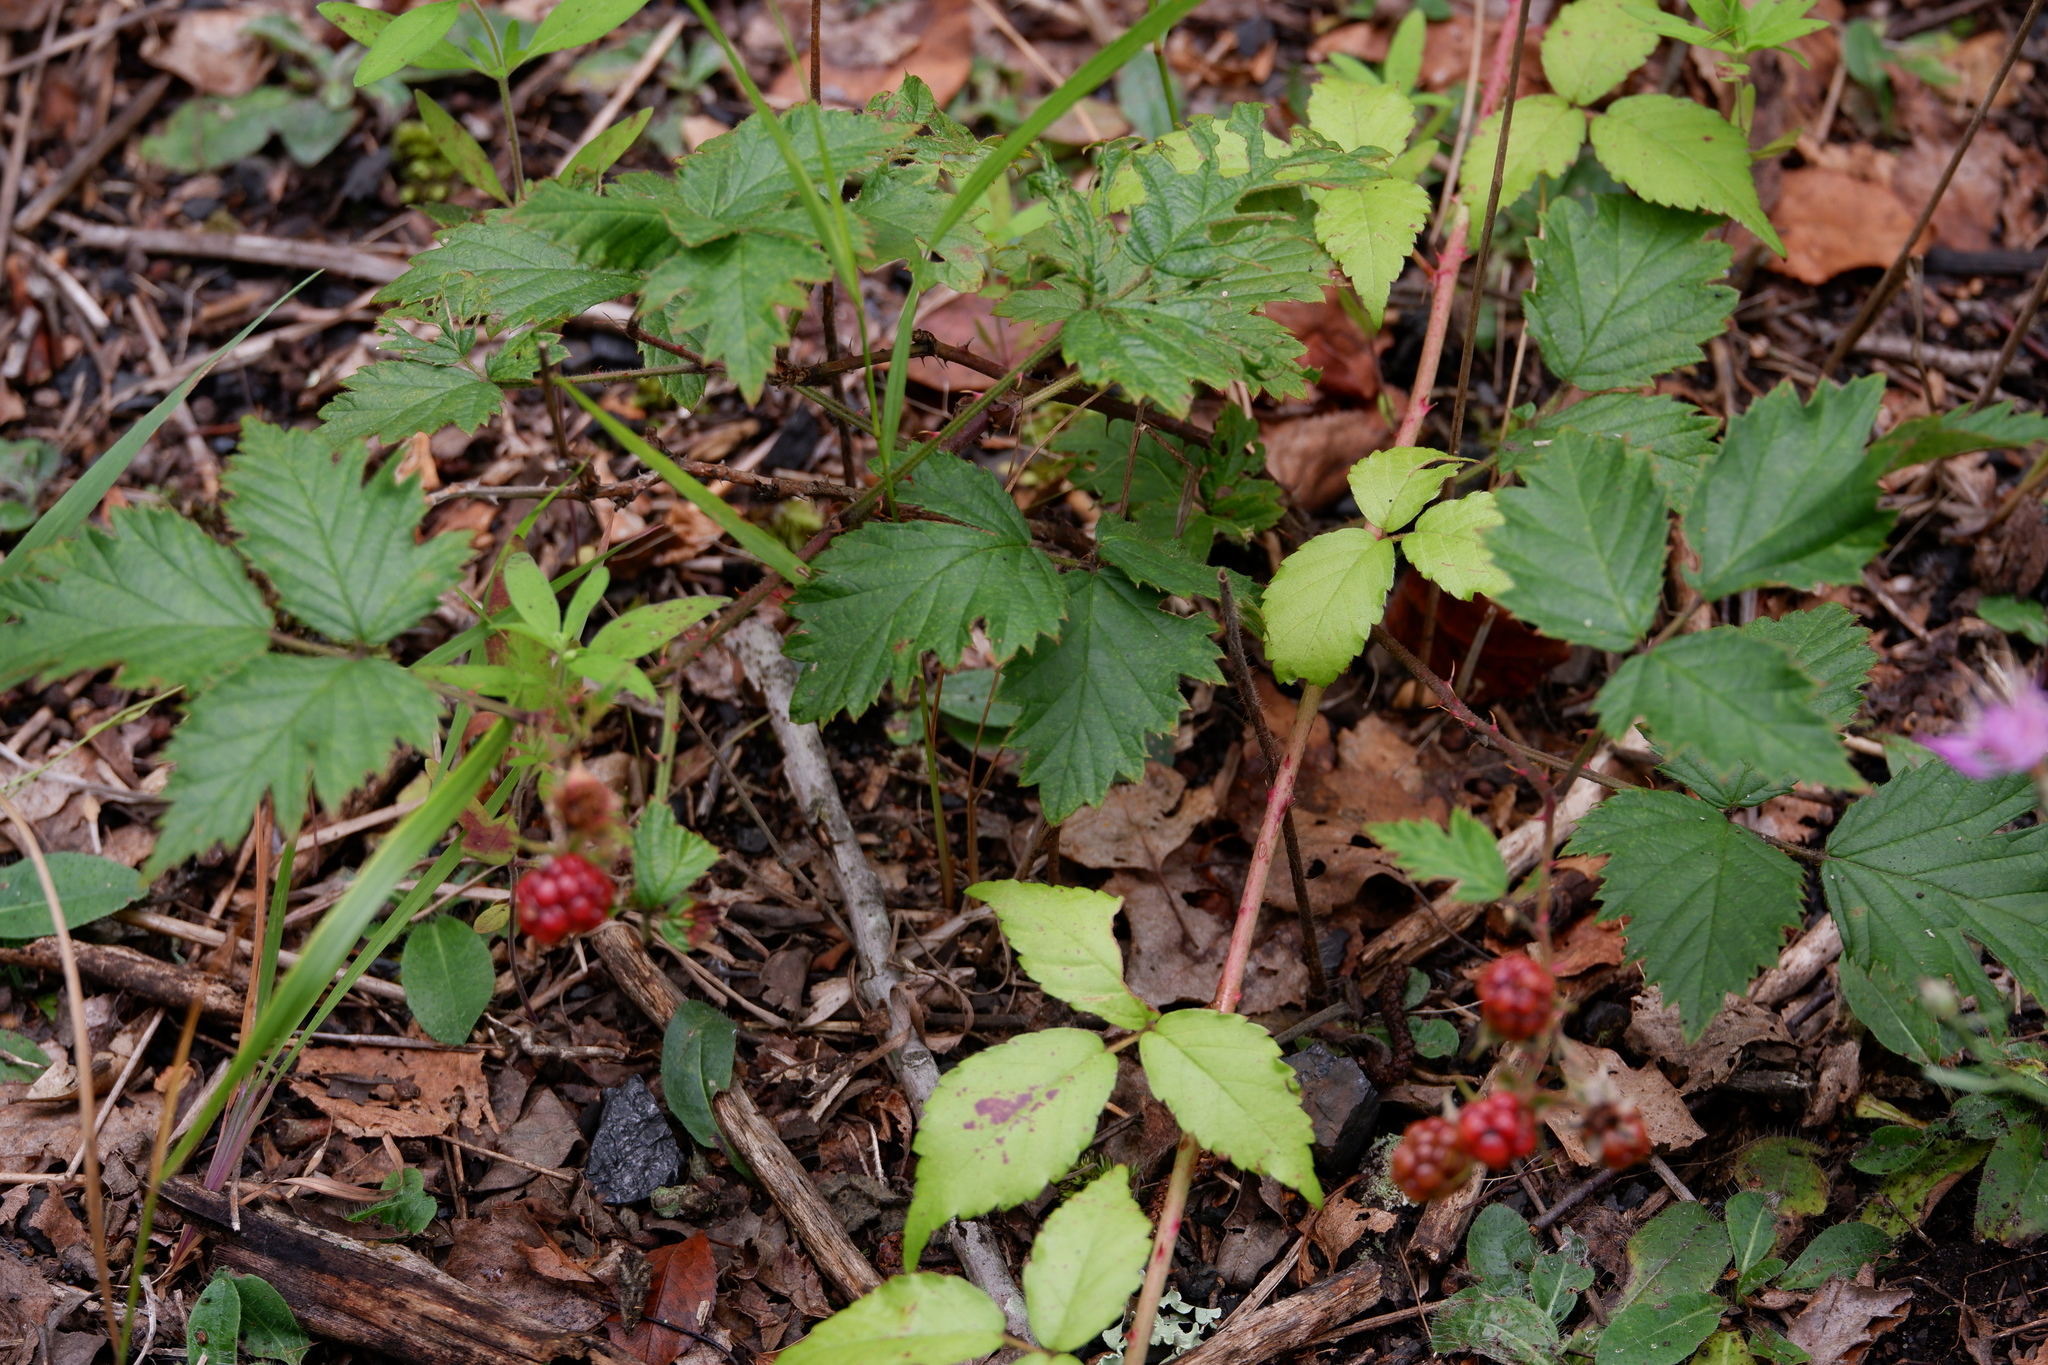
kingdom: Plantae
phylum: Tracheophyta
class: Magnoliopsida
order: Rosales
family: Rosaceae
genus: Rubus
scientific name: Rubus laciniatus
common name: Evergreen blackberry
